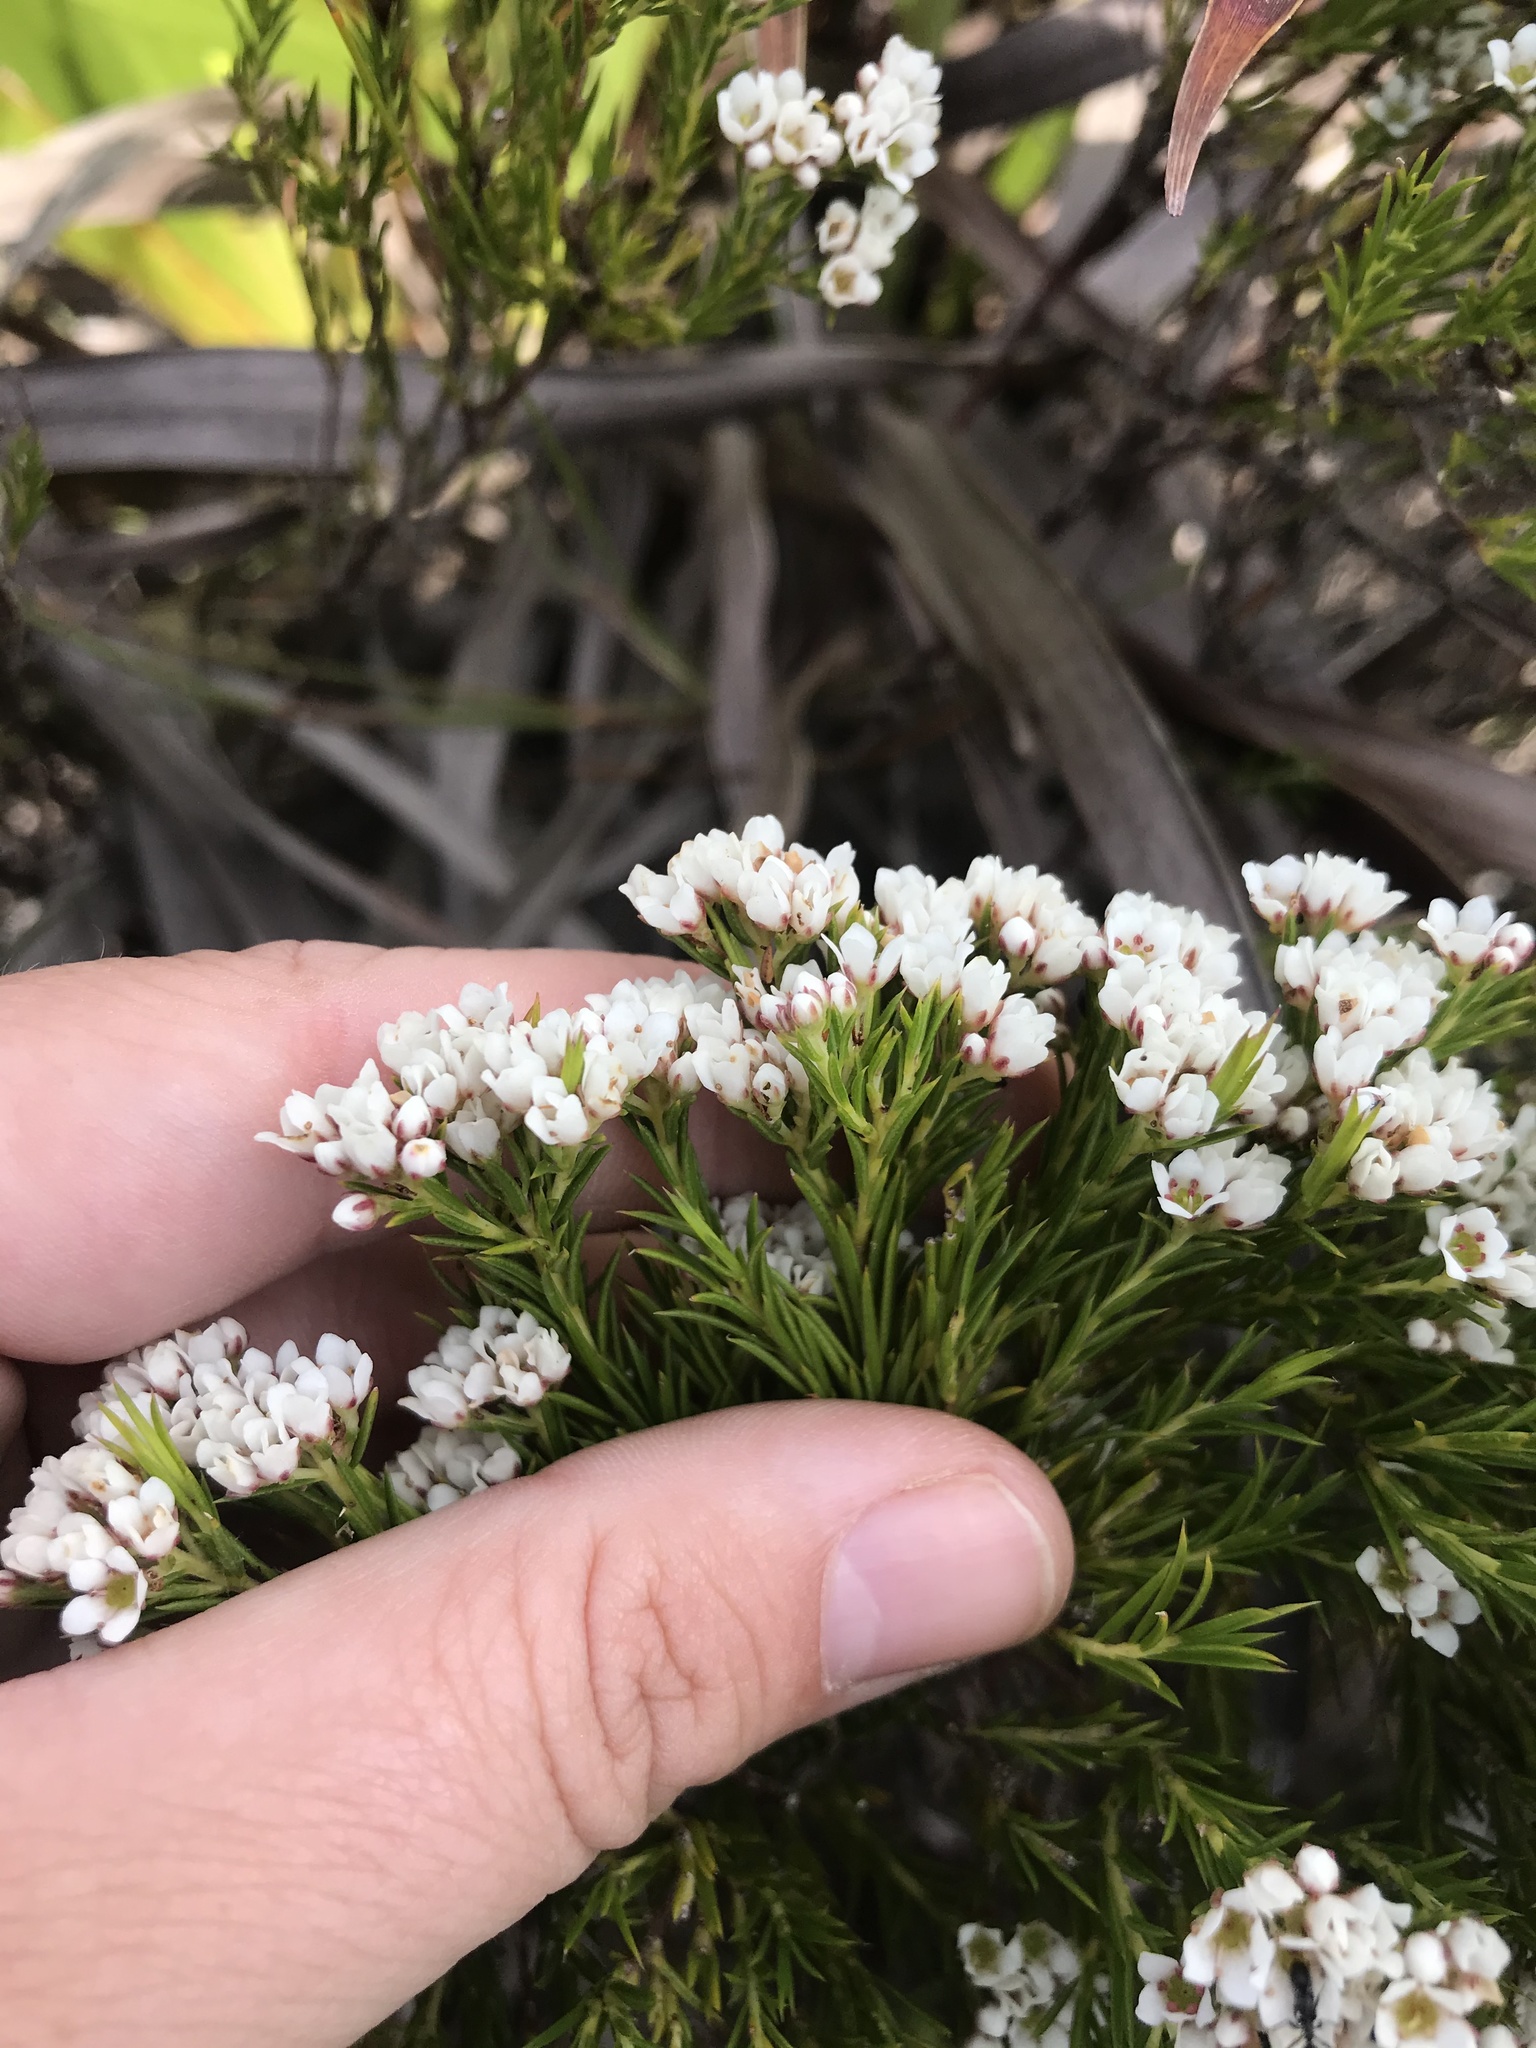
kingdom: Plantae
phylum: Tracheophyta
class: Magnoliopsida
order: Sapindales
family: Rutaceae
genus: Diosma
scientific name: Diosma hirsuta
